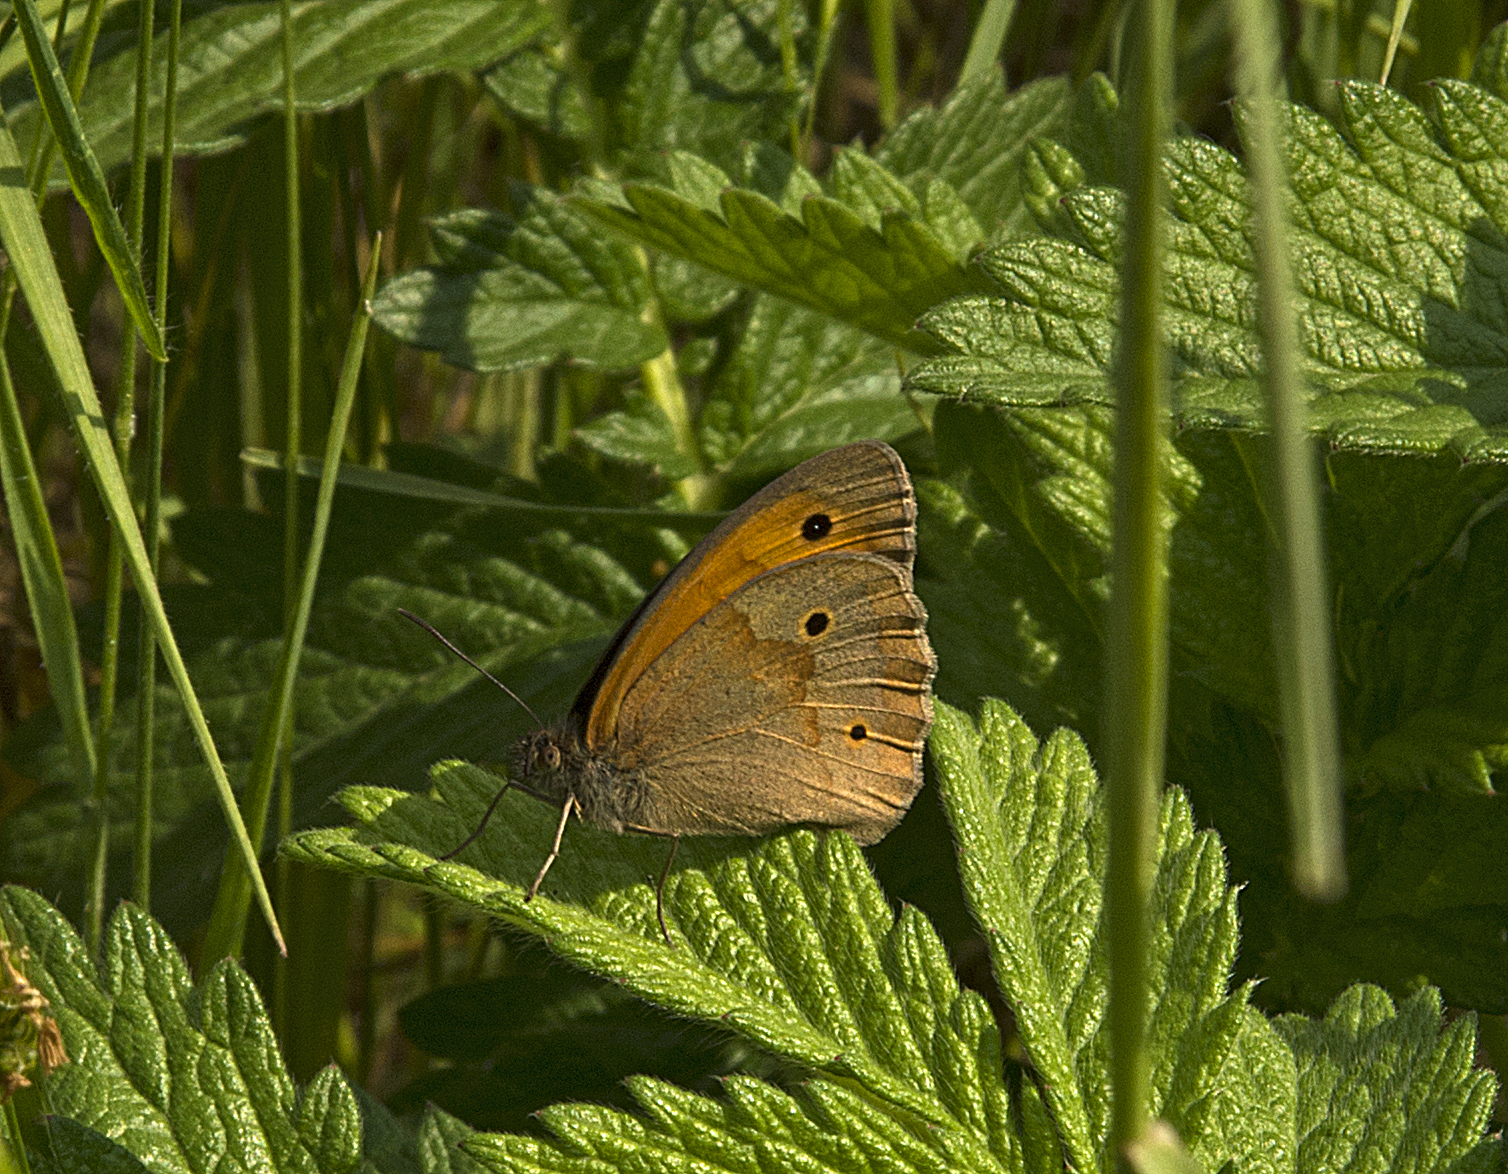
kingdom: Animalia
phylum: Arthropoda
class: Insecta
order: Lepidoptera
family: Nymphalidae
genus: Maniola
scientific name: Maniola jurtina
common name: Meadow brown
